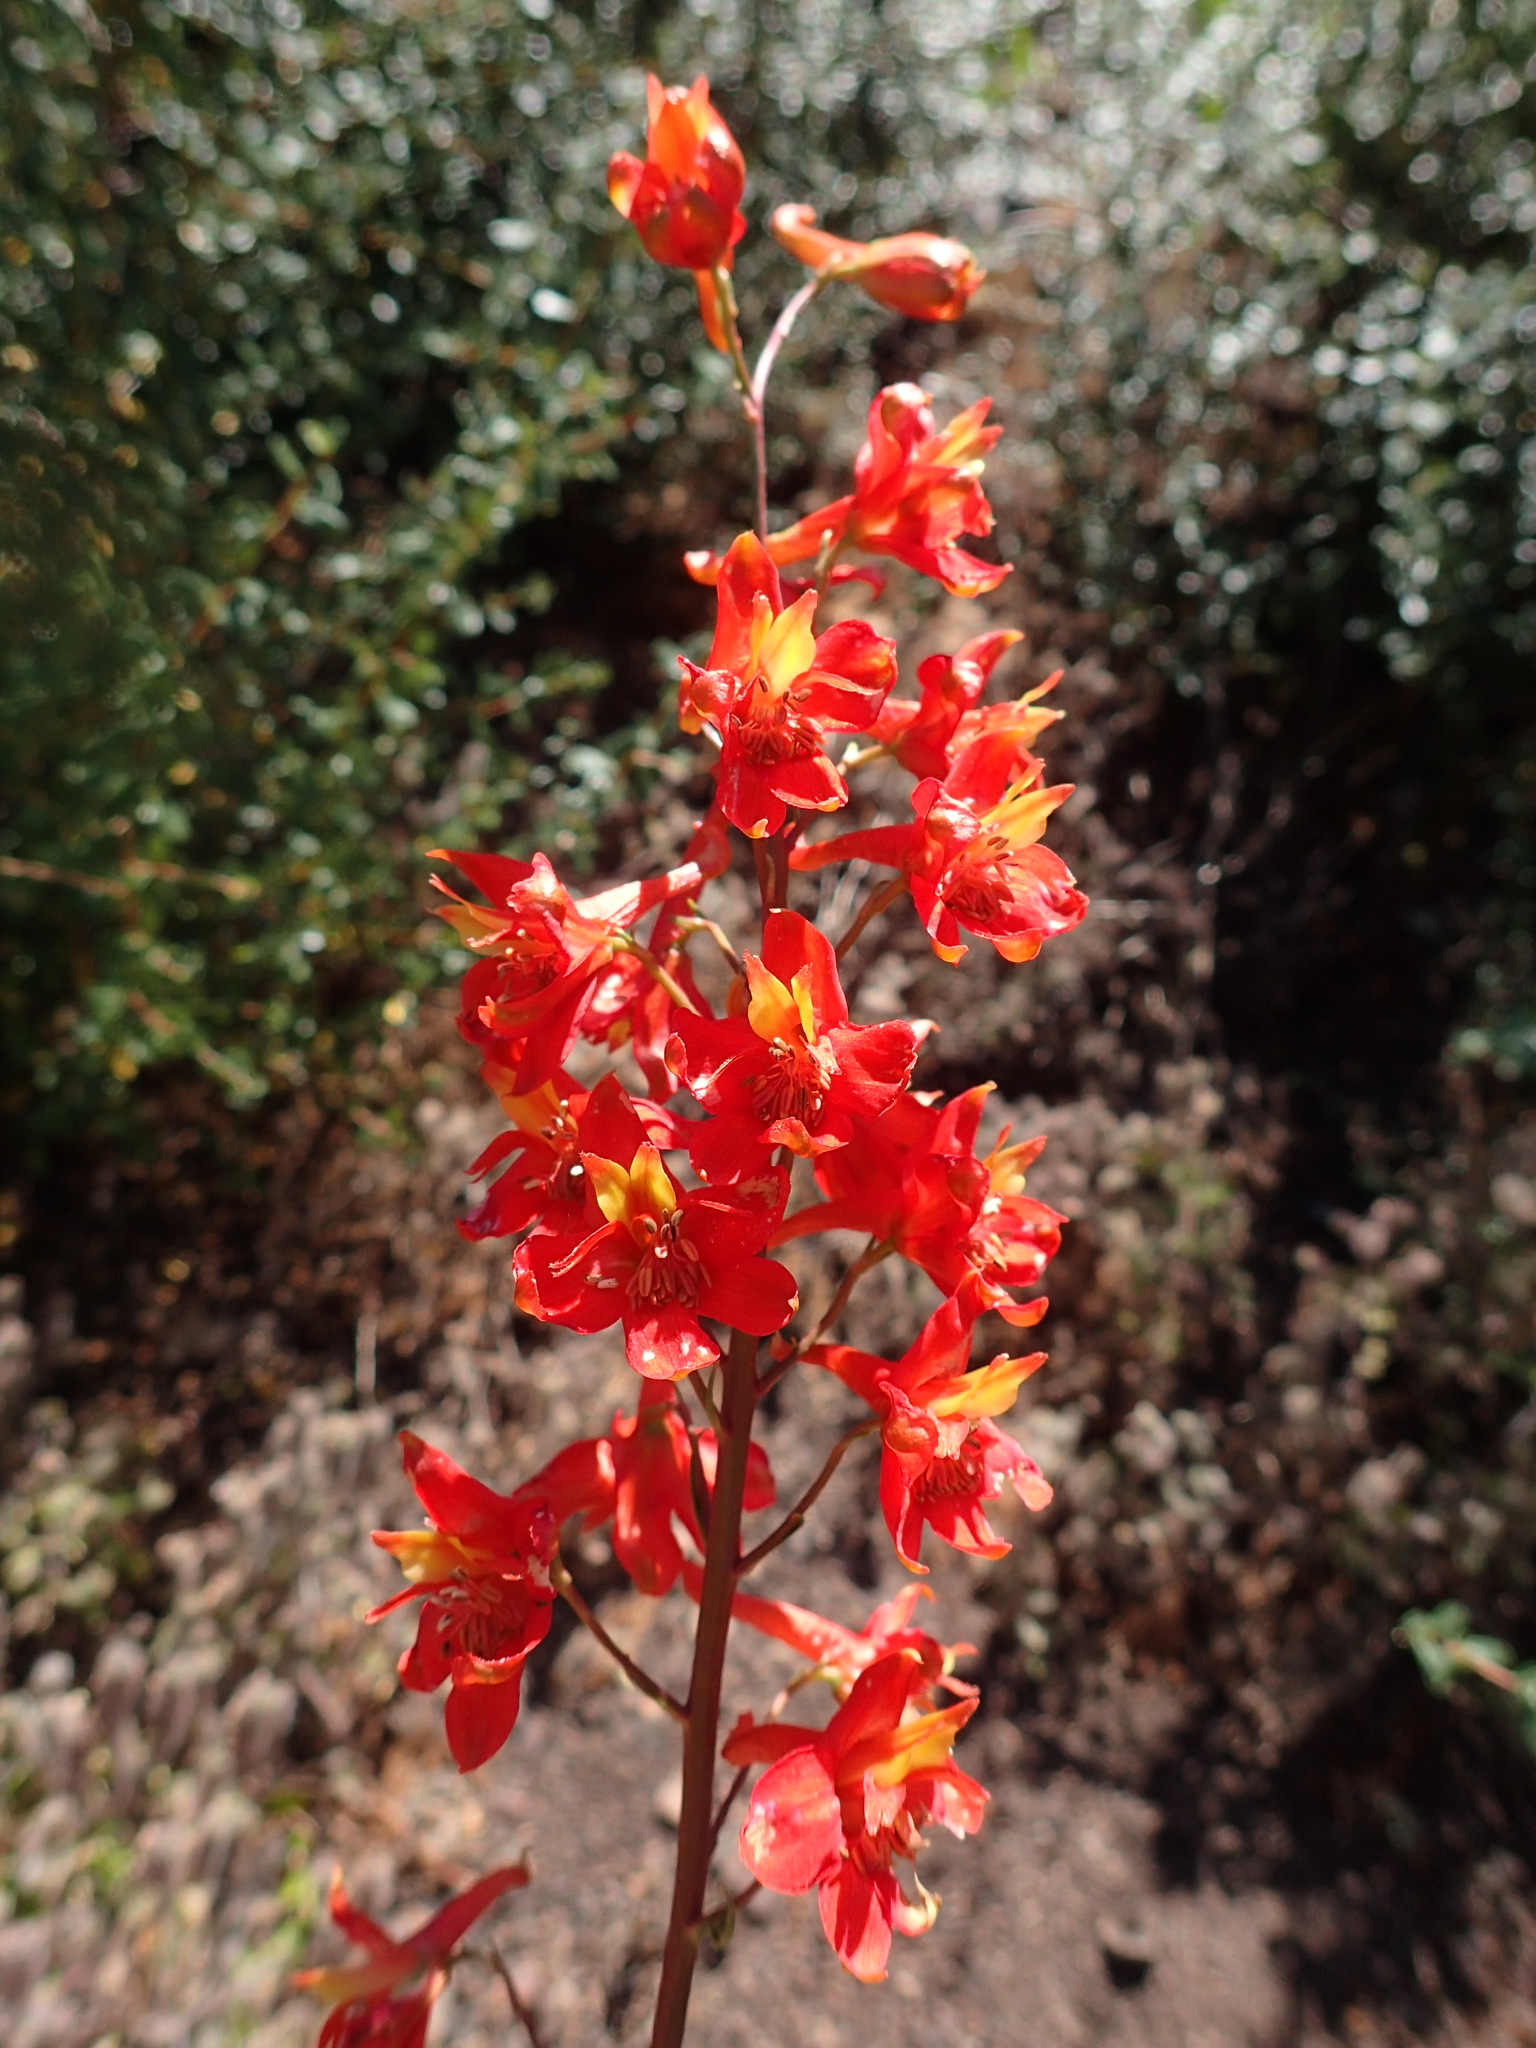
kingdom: Plantae
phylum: Tracheophyta
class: Magnoliopsida
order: Ranunculales
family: Ranunculaceae
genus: Delphinium
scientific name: Delphinium cardinale
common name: Scarlet larkspur
